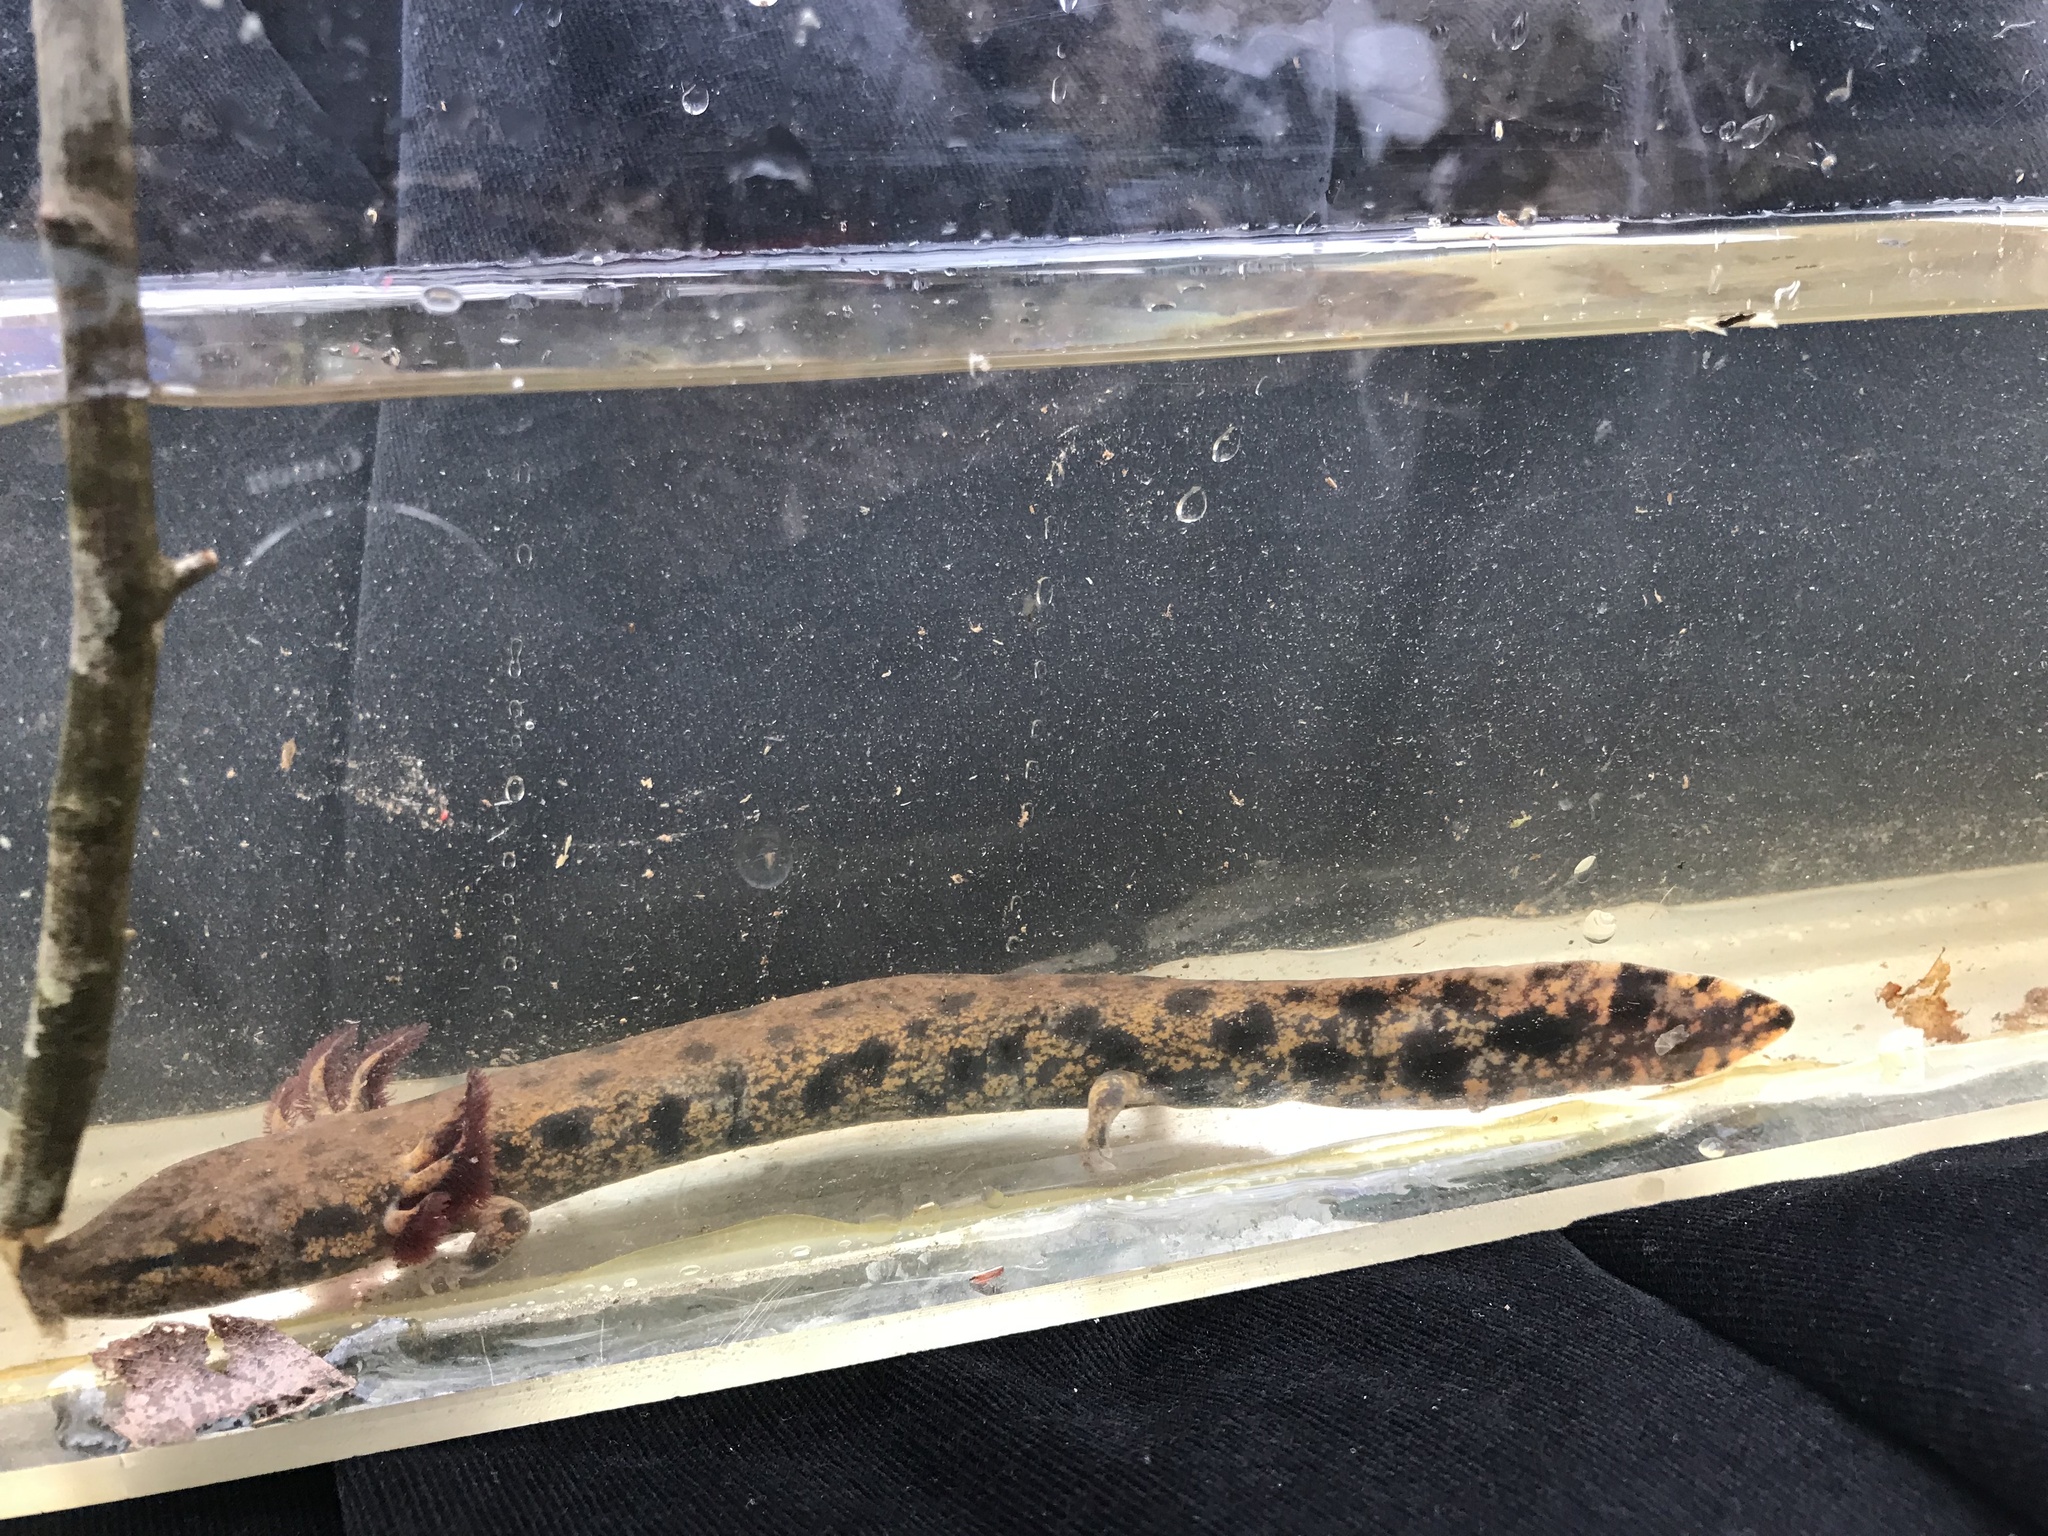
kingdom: Animalia
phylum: Chordata
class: Amphibia
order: Caudata
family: Proteidae
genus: Necturus
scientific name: Necturus lewisi
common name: Neuse river waterdog
